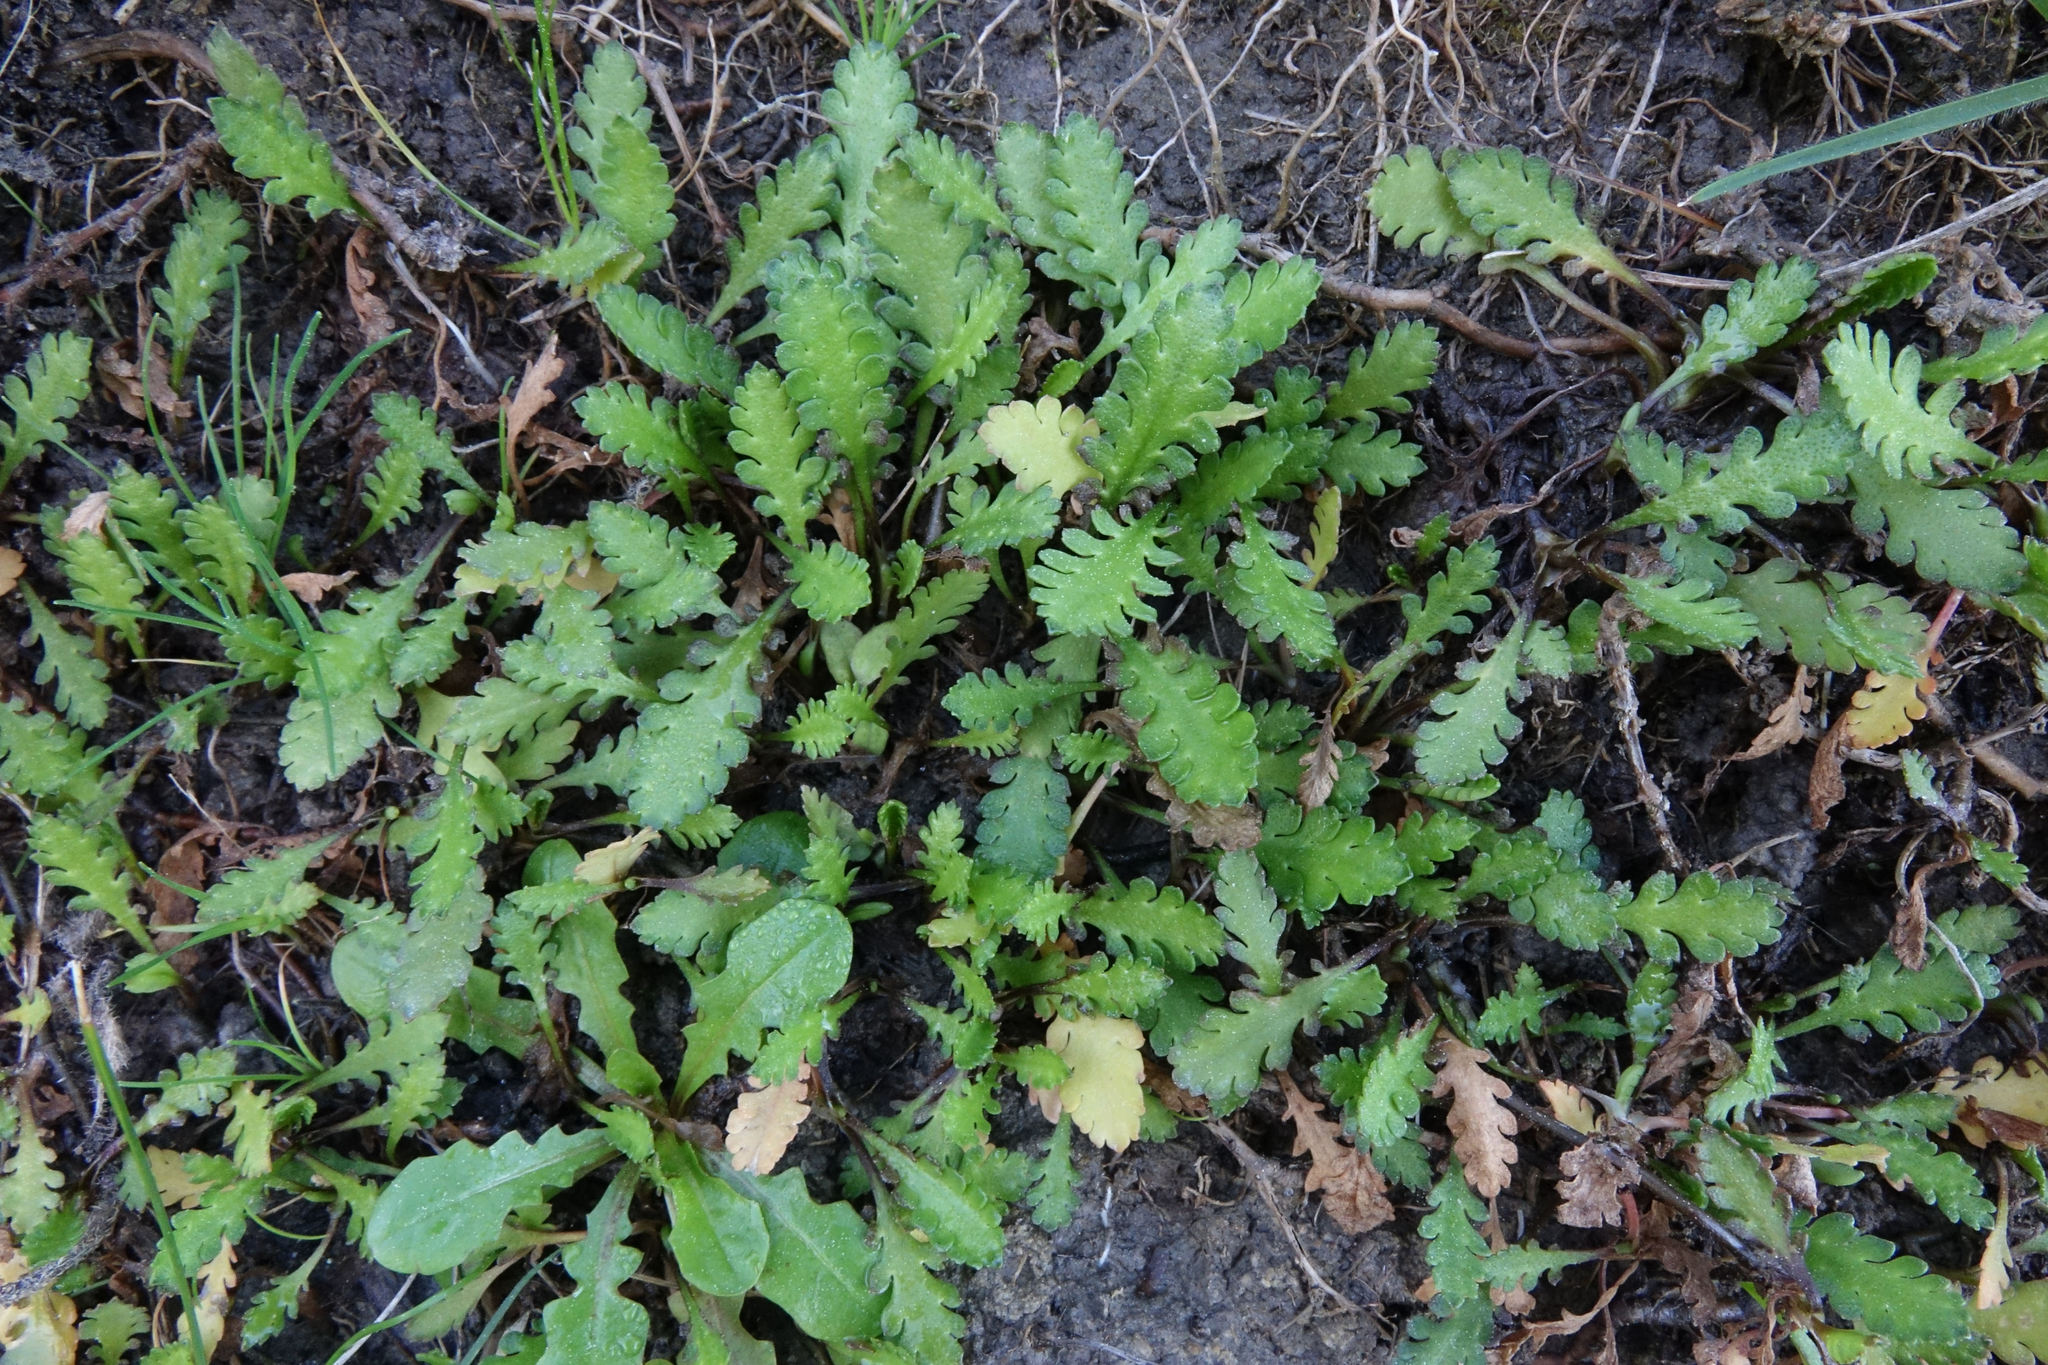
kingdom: Plantae
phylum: Tracheophyta
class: Magnoliopsida
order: Asterales
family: Asteraceae
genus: Leptinella
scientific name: Leptinella dioica
